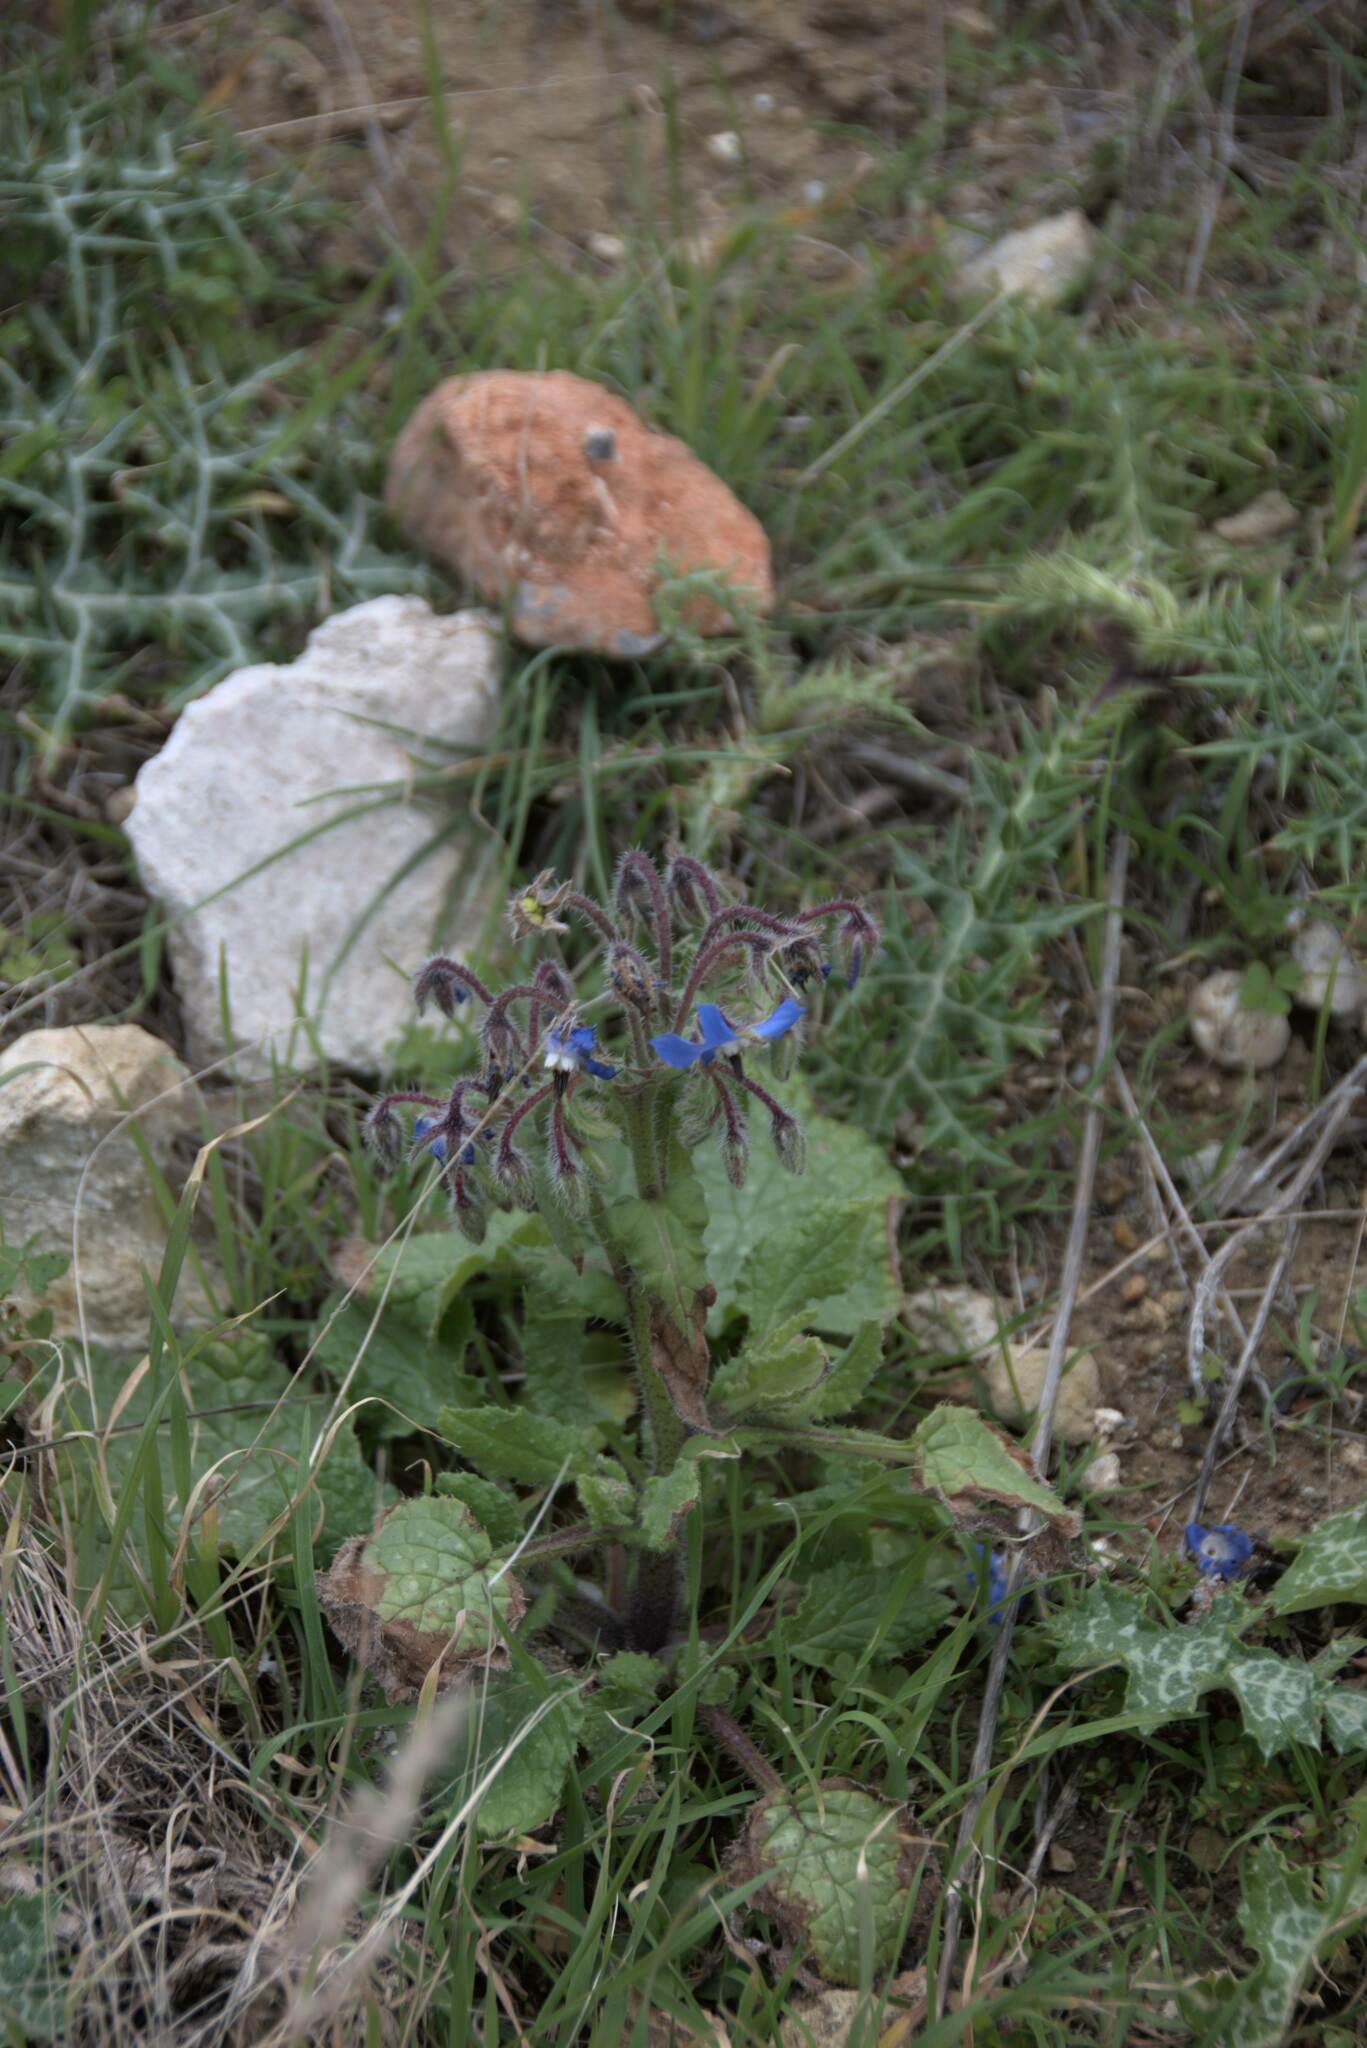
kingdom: Plantae
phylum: Tracheophyta
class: Magnoliopsida
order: Boraginales
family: Boraginaceae
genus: Borago
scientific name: Borago officinalis
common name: Borage
